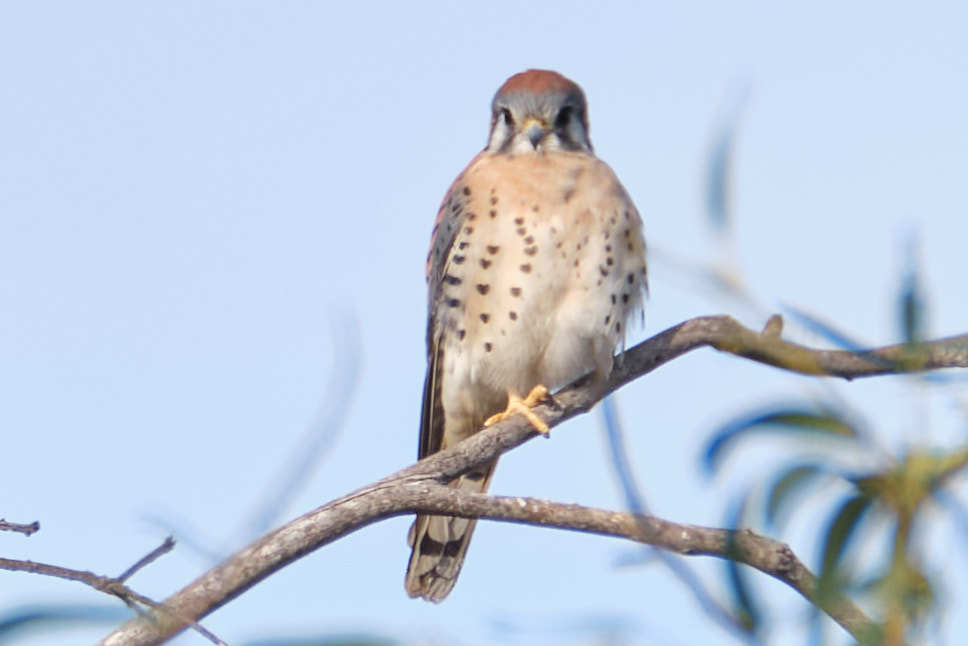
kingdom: Animalia
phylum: Chordata
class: Aves
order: Falconiformes
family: Falconidae
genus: Falco
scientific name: Falco sparverius
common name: American kestrel
